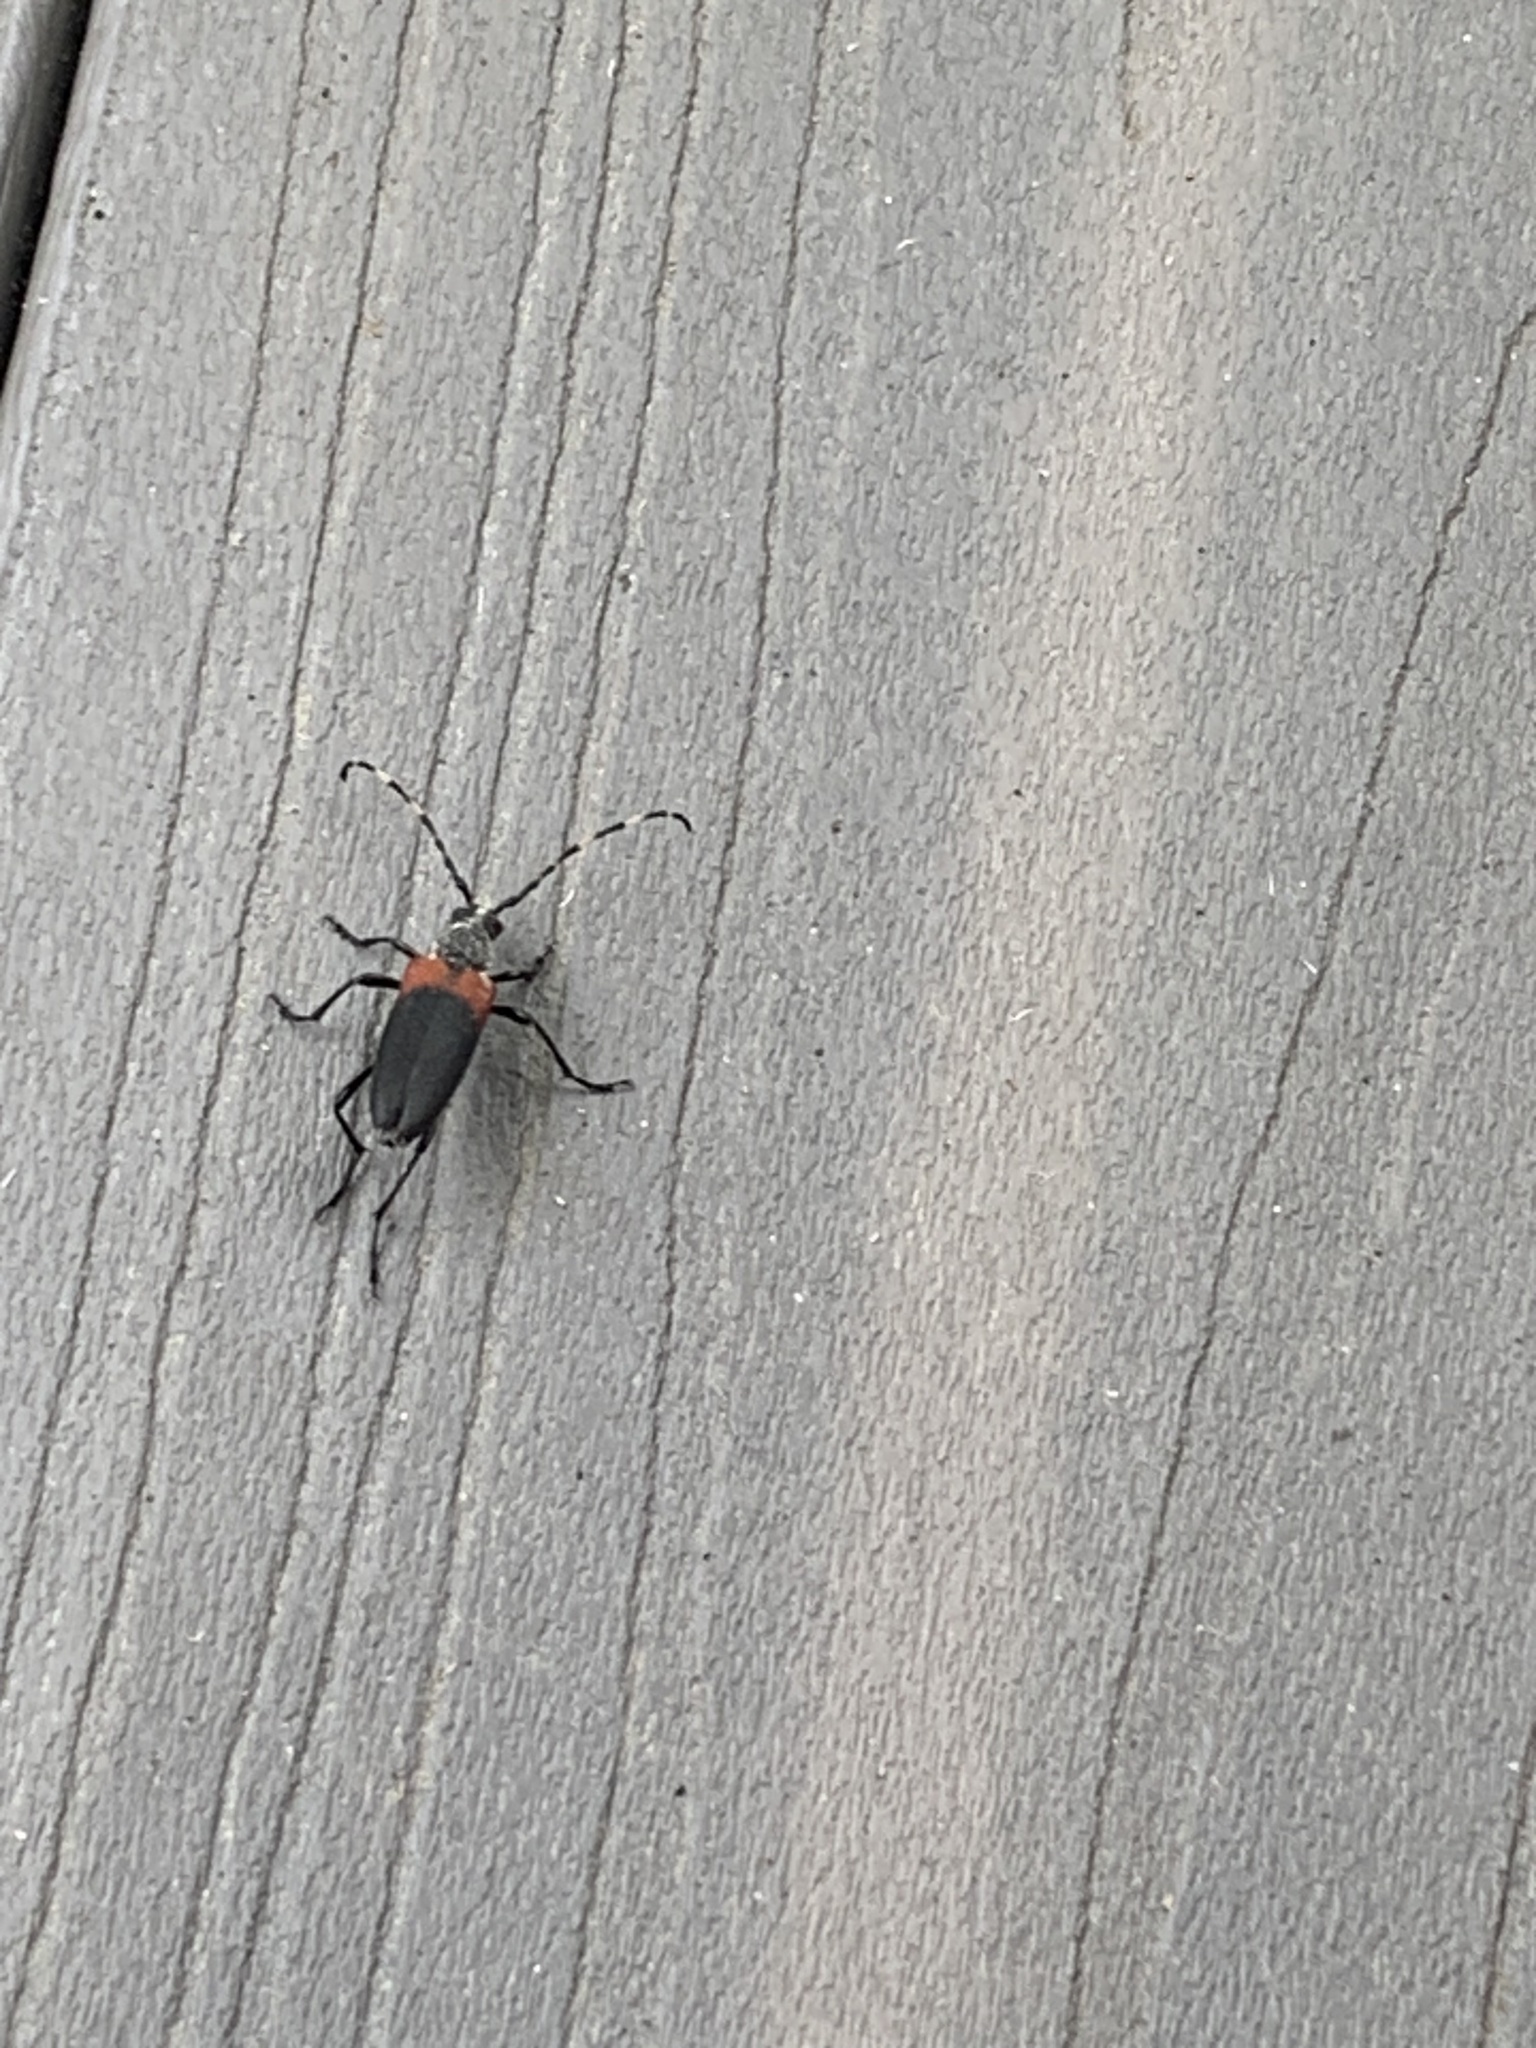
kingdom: Animalia
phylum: Arthropoda
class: Insecta
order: Coleoptera
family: Cerambycidae
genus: Stictoleptura
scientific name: Stictoleptura canadensis
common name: Red-shouldered pine borer
